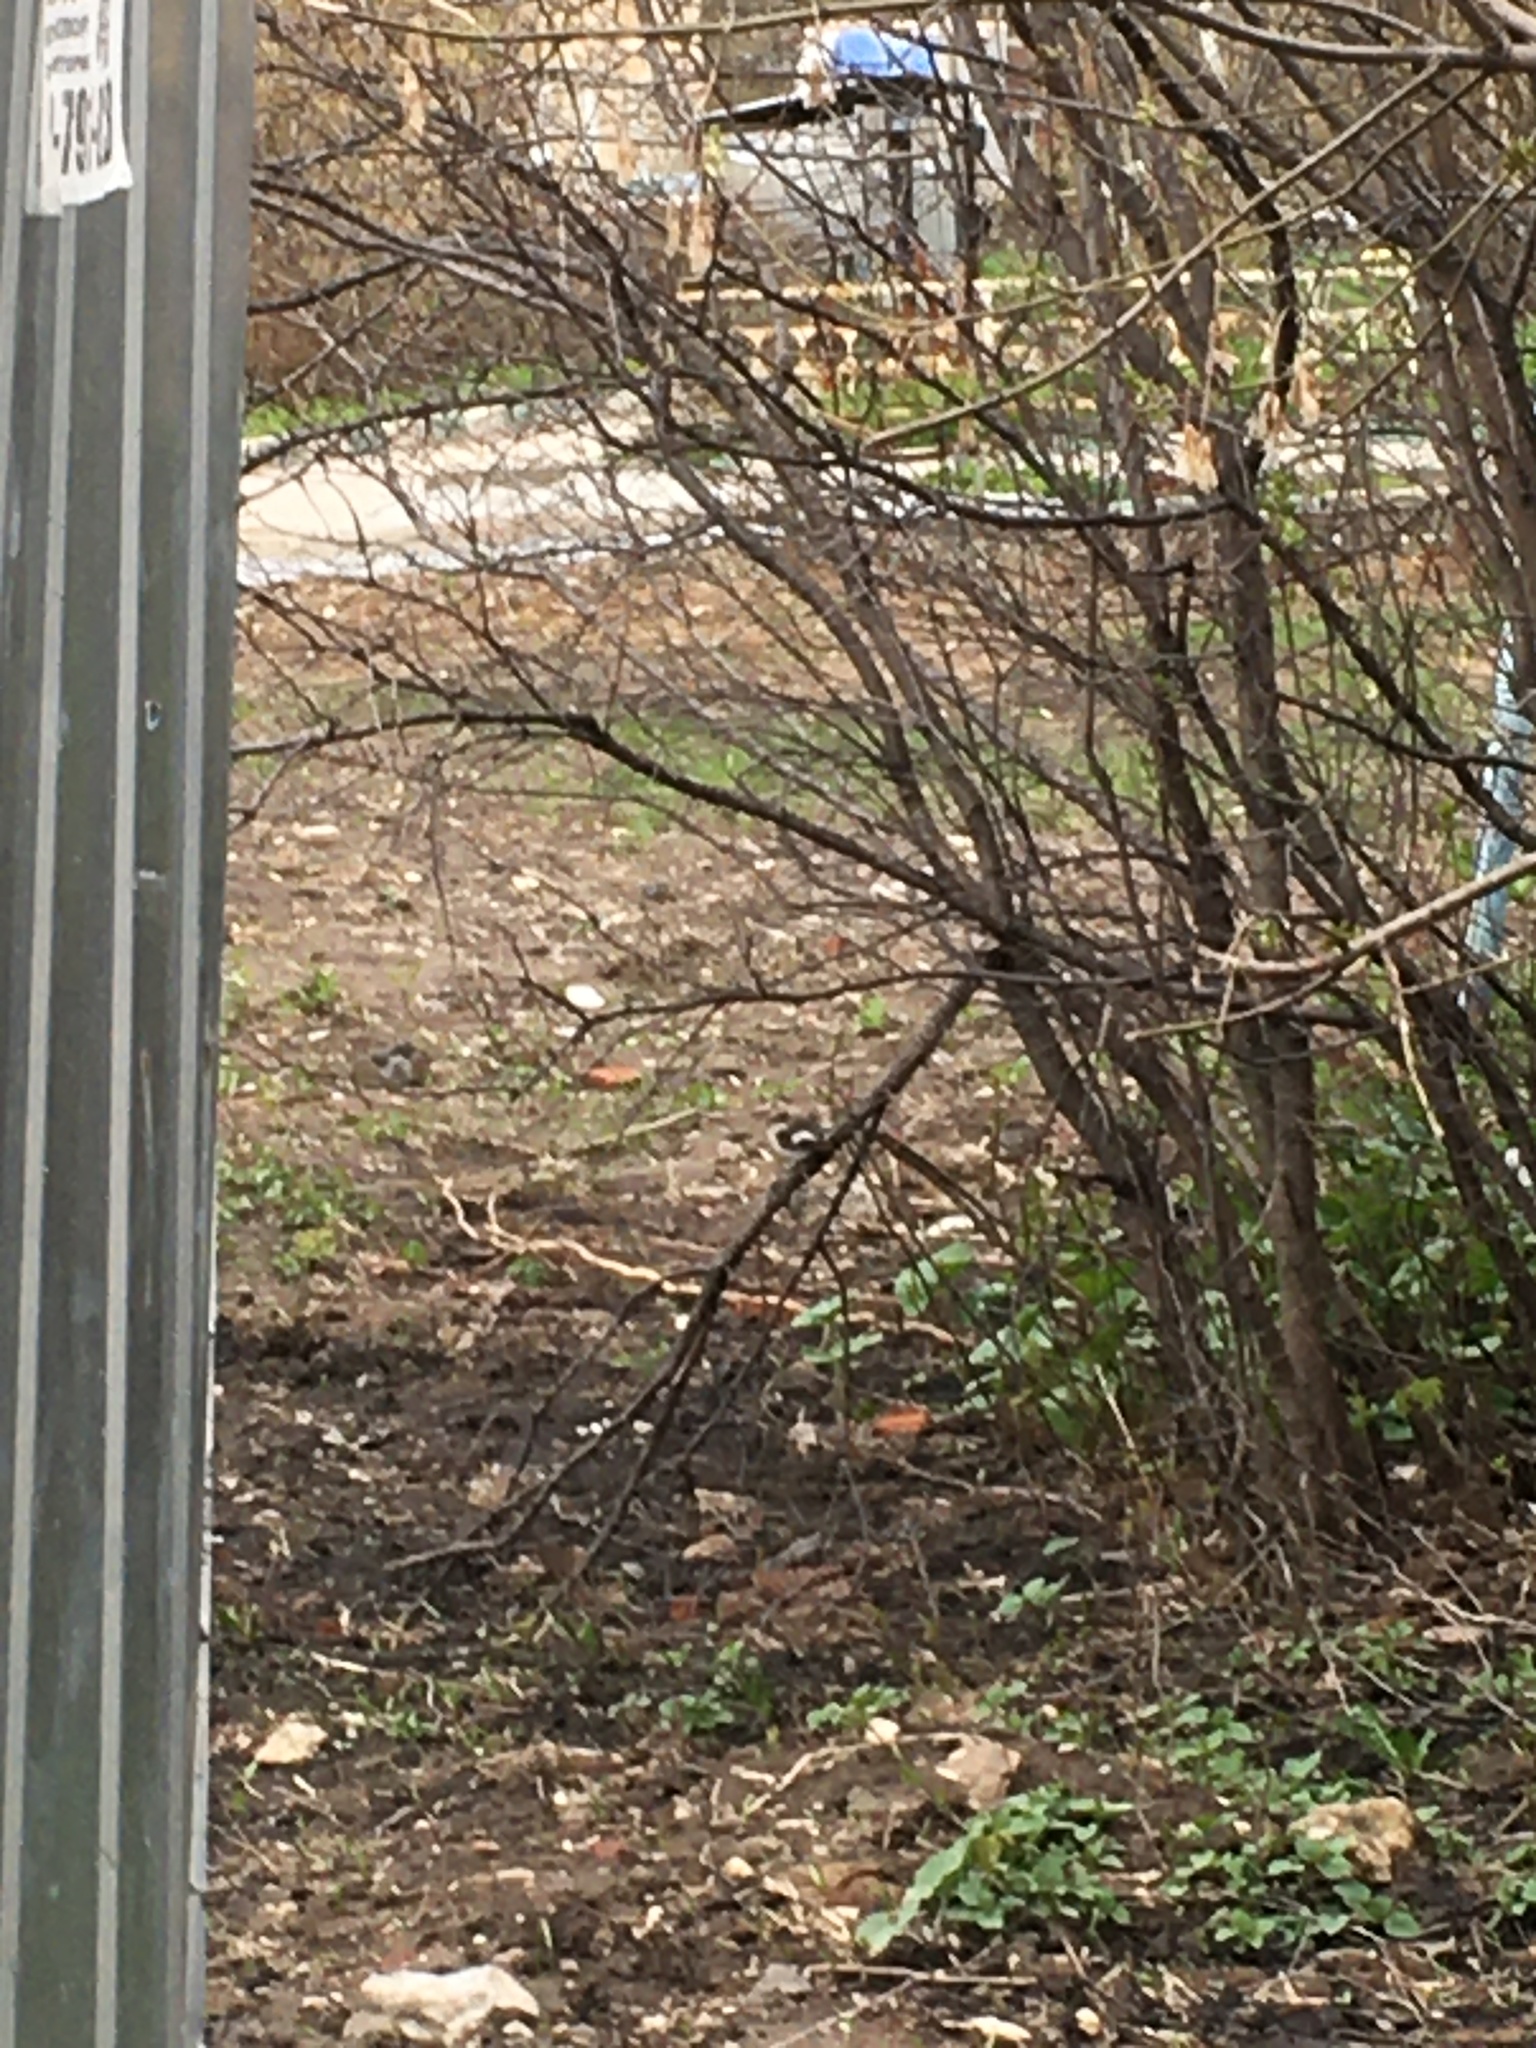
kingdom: Animalia
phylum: Chordata
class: Aves
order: Passeriformes
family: Muscicapidae
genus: Ficedula
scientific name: Ficedula hypoleuca
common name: European pied flycatcher
